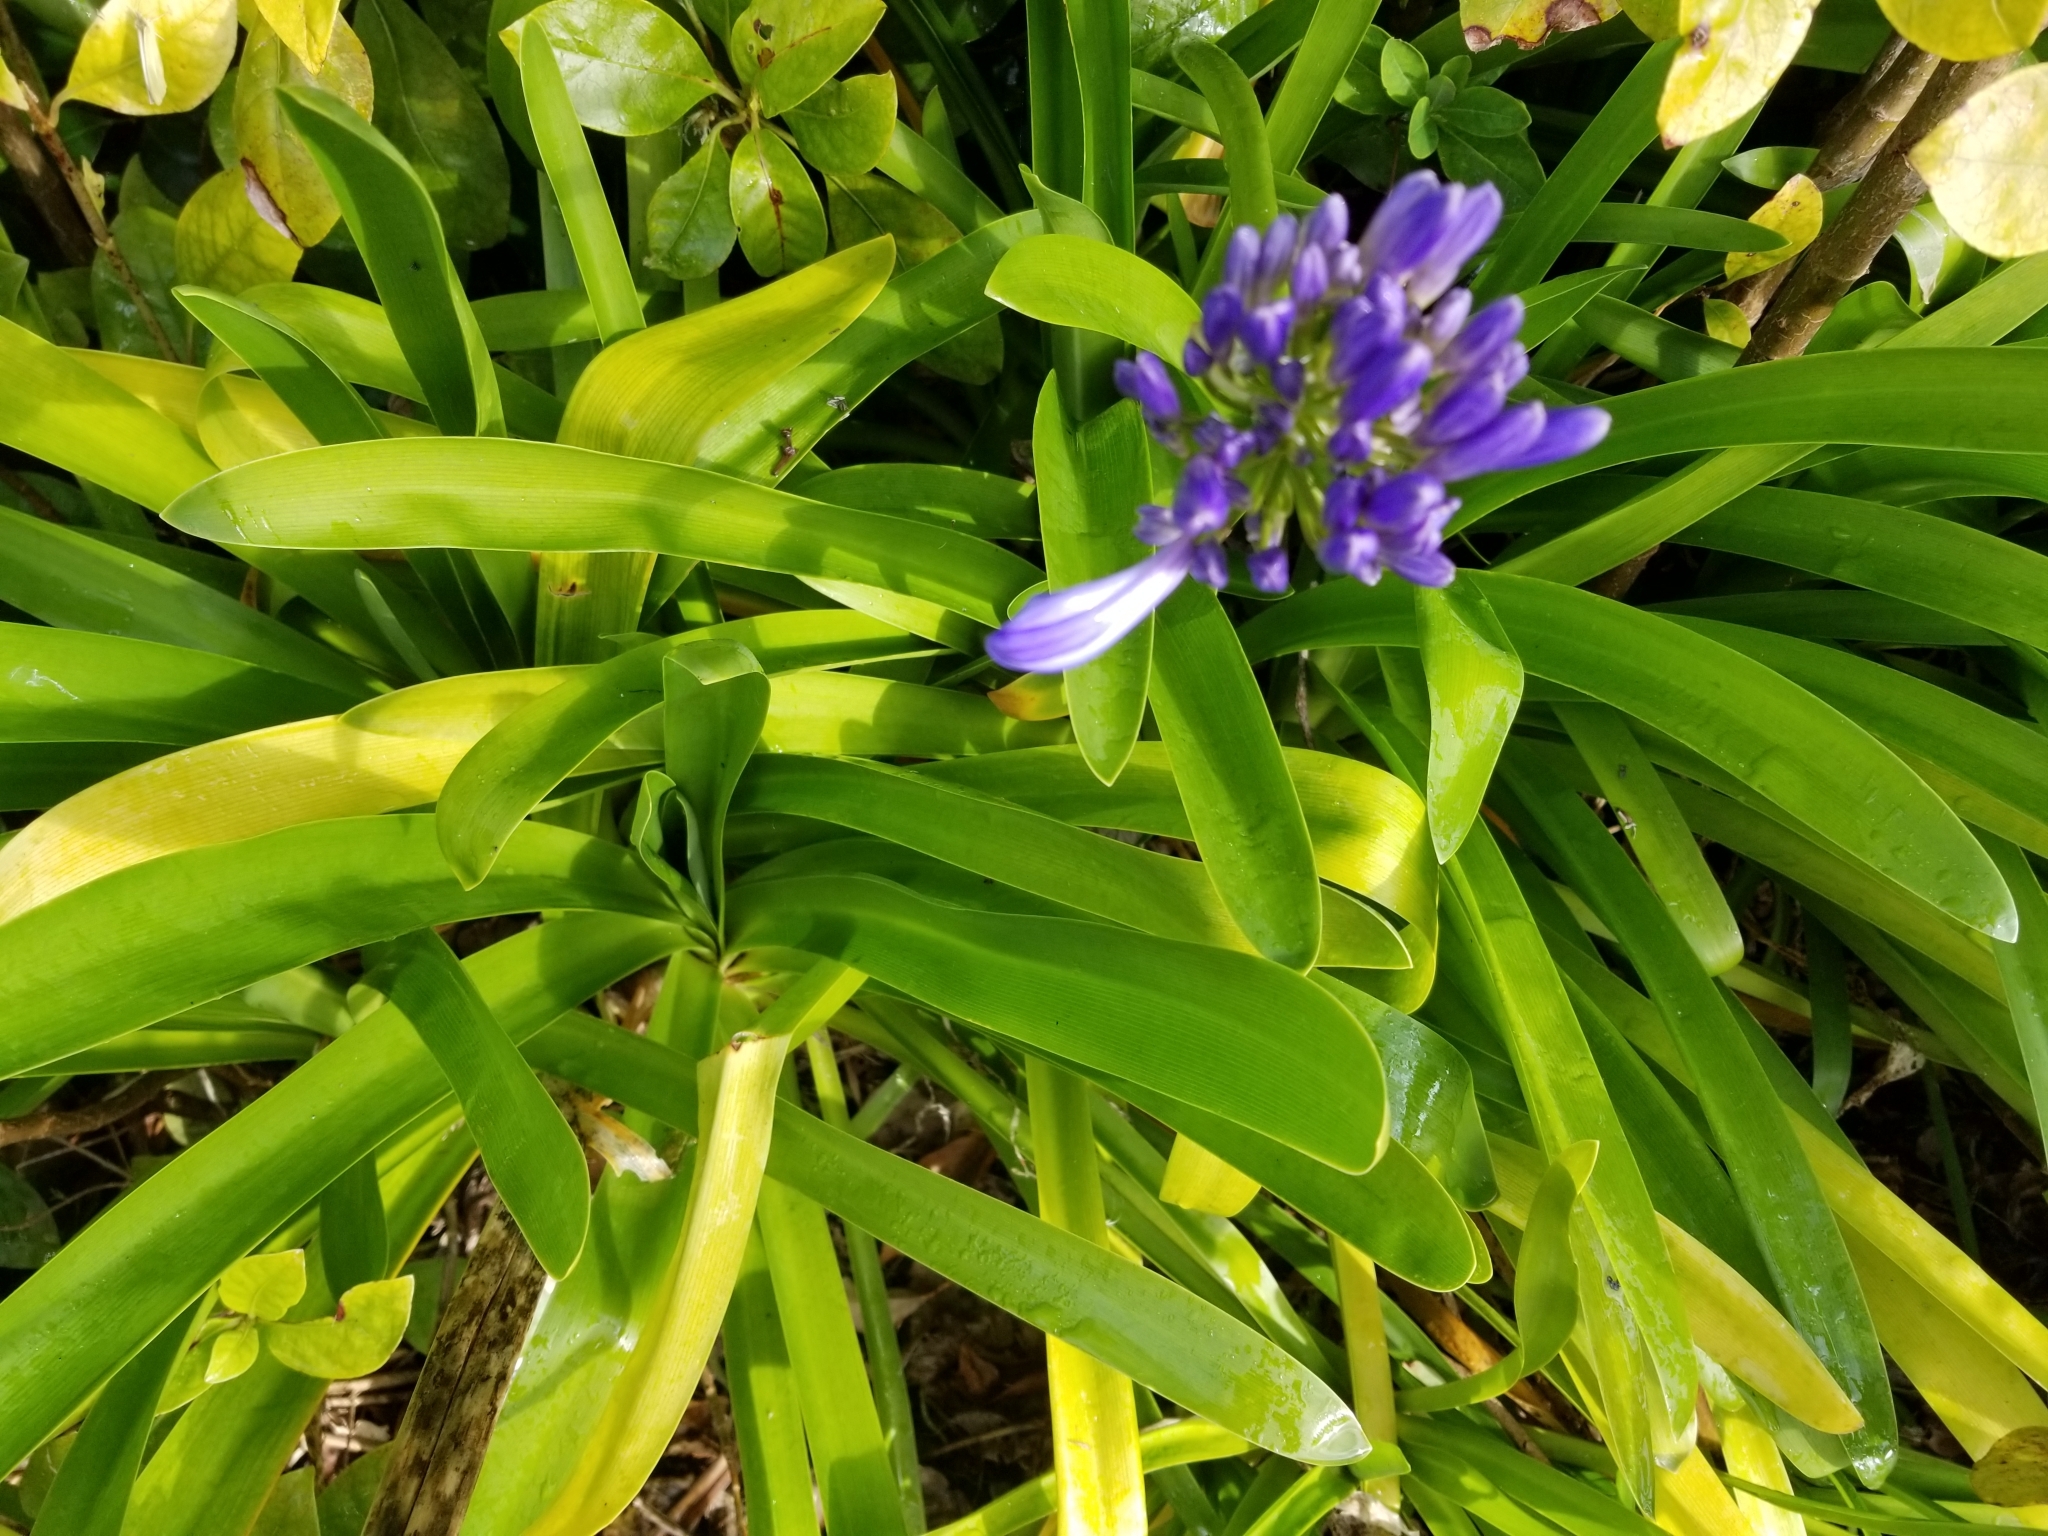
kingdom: Plantae
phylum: Tracheophyta
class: Liliopsida
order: Asparagales
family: Amaryllidaceae
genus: Agapanthus
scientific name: Agapanthus praecox
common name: African-lily
